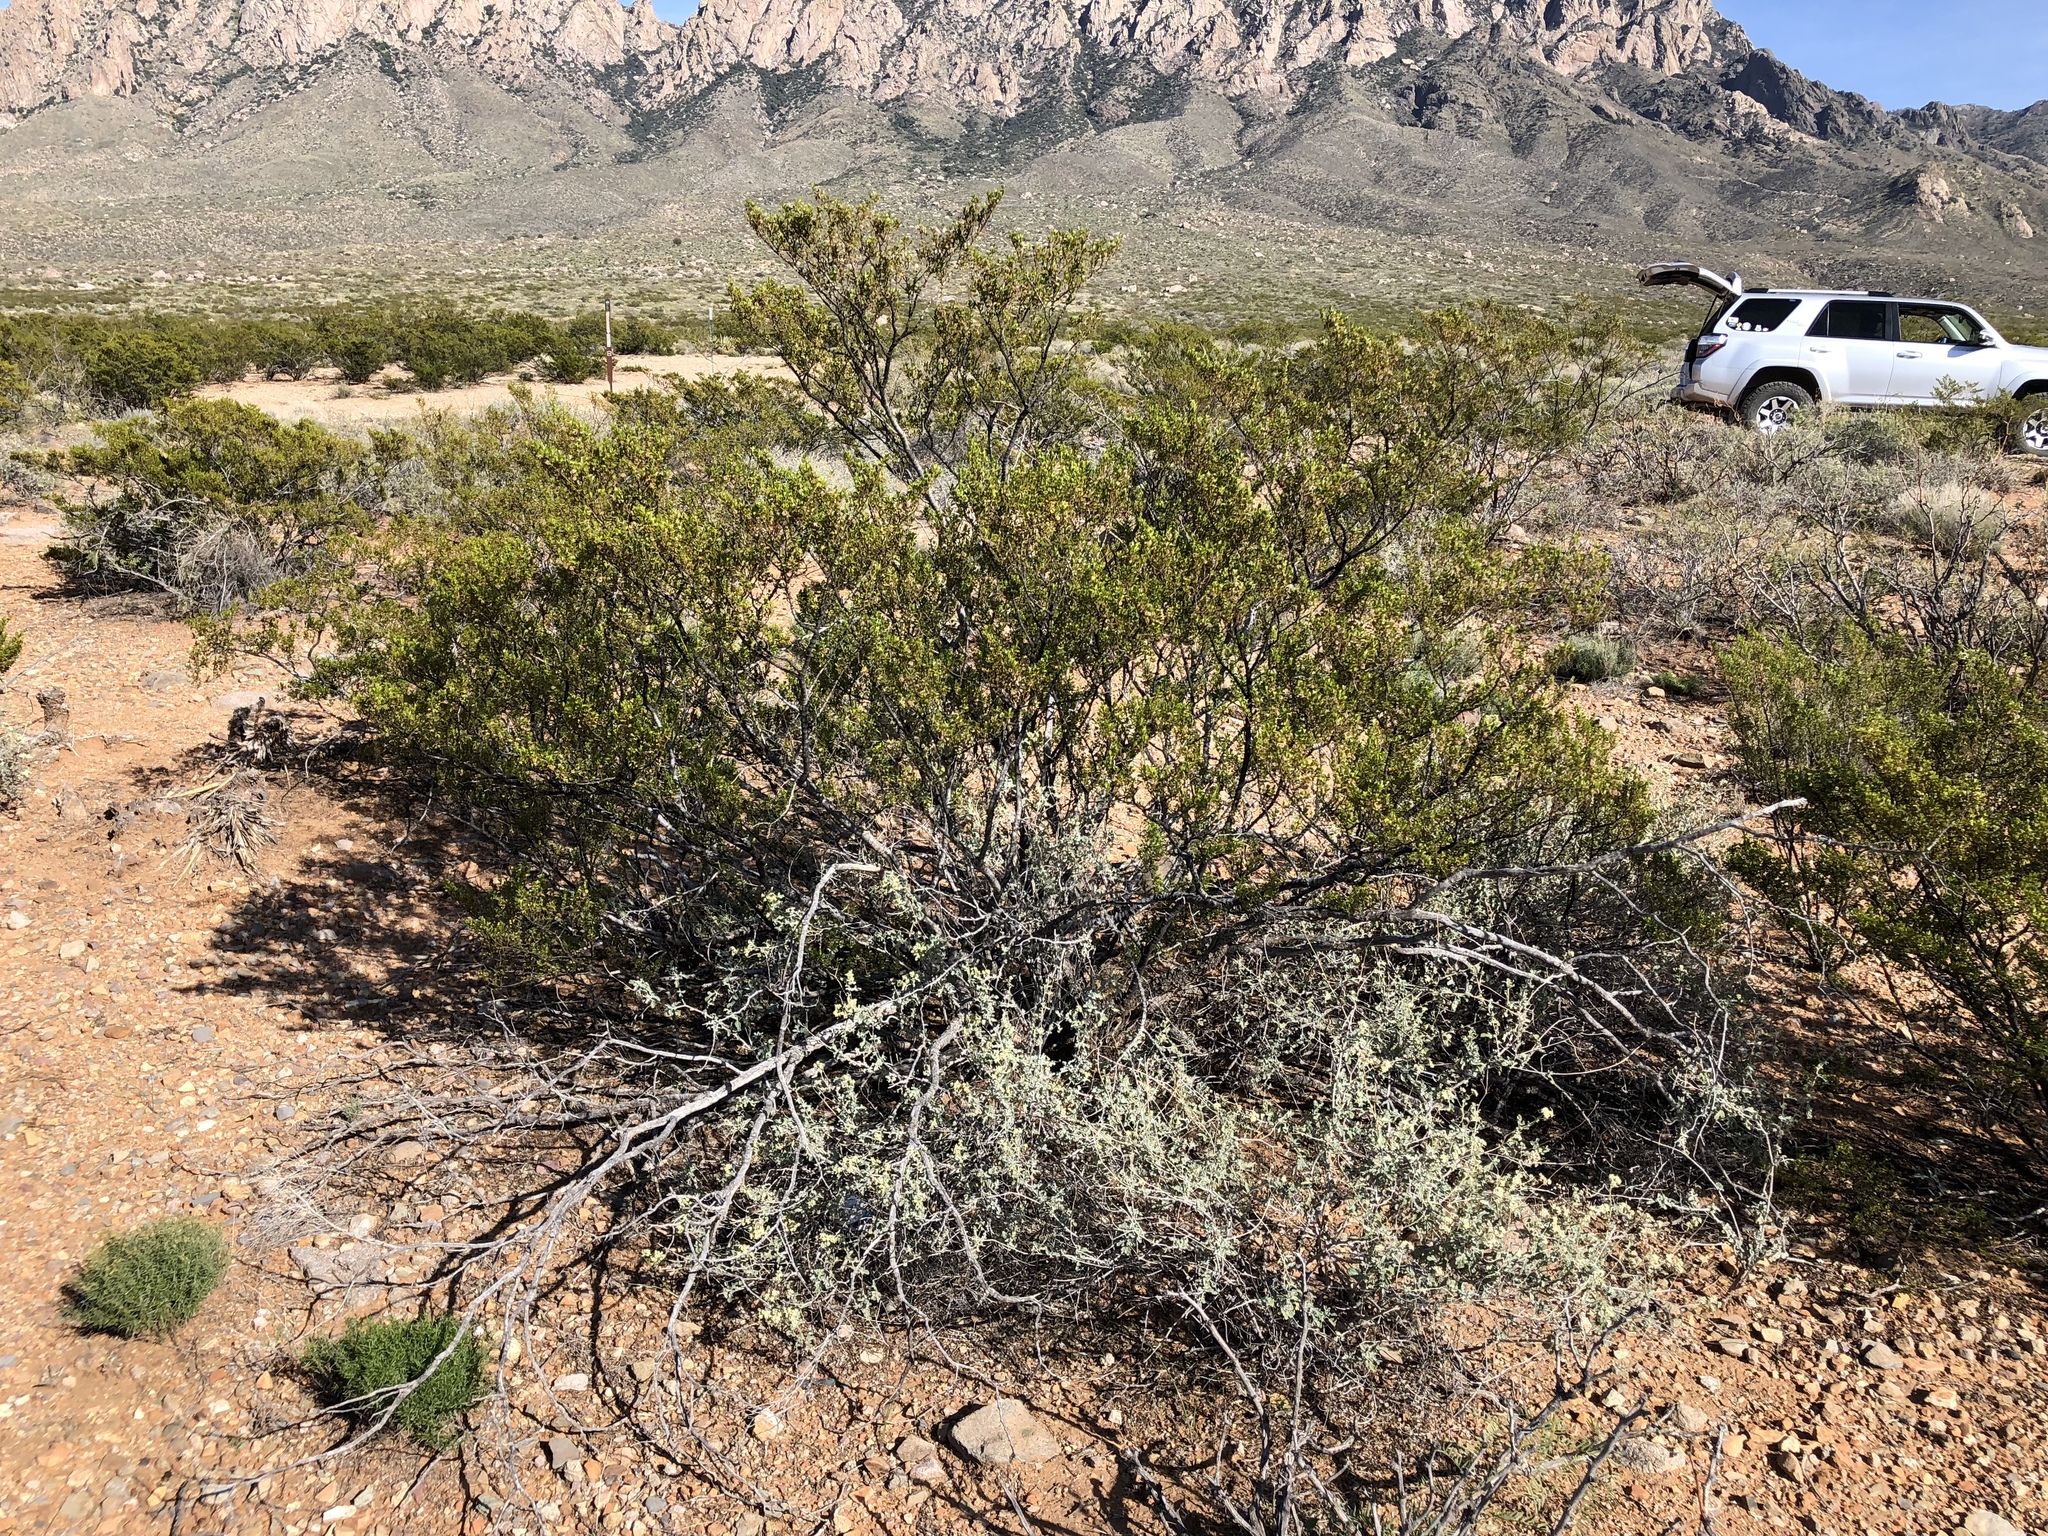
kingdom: Plantae
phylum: Tracheophyta
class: Magnoliopsida
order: Zygophyllales
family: Zygophyllaceae
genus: Larrea
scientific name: Larrea tridentata
